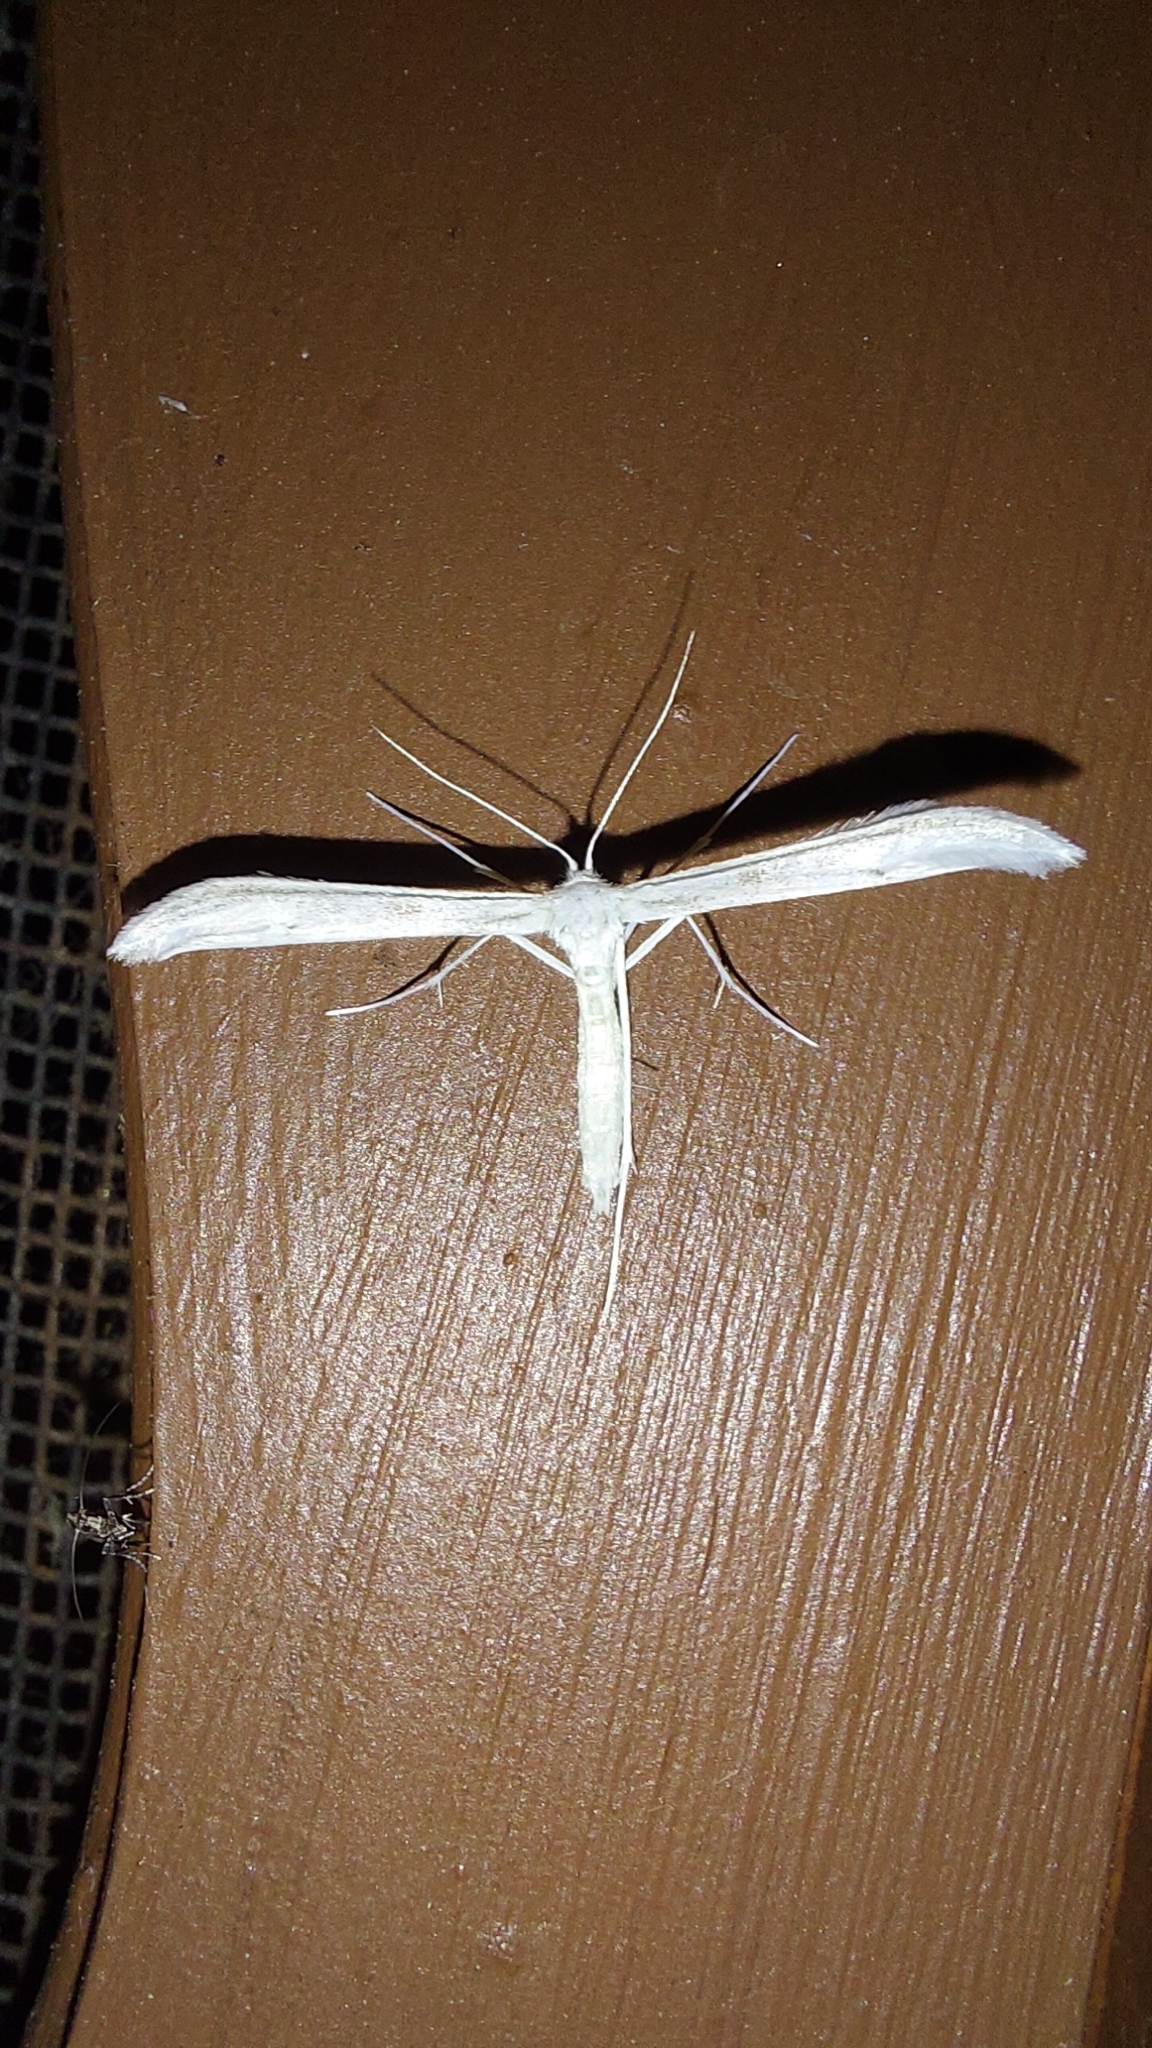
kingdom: Animalia
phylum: Arthropoda
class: Insecta
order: Lepidoptera
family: Pterophoridae
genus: Hellinsia
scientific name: Hellinsia homodactylus
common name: Plain plume moth
